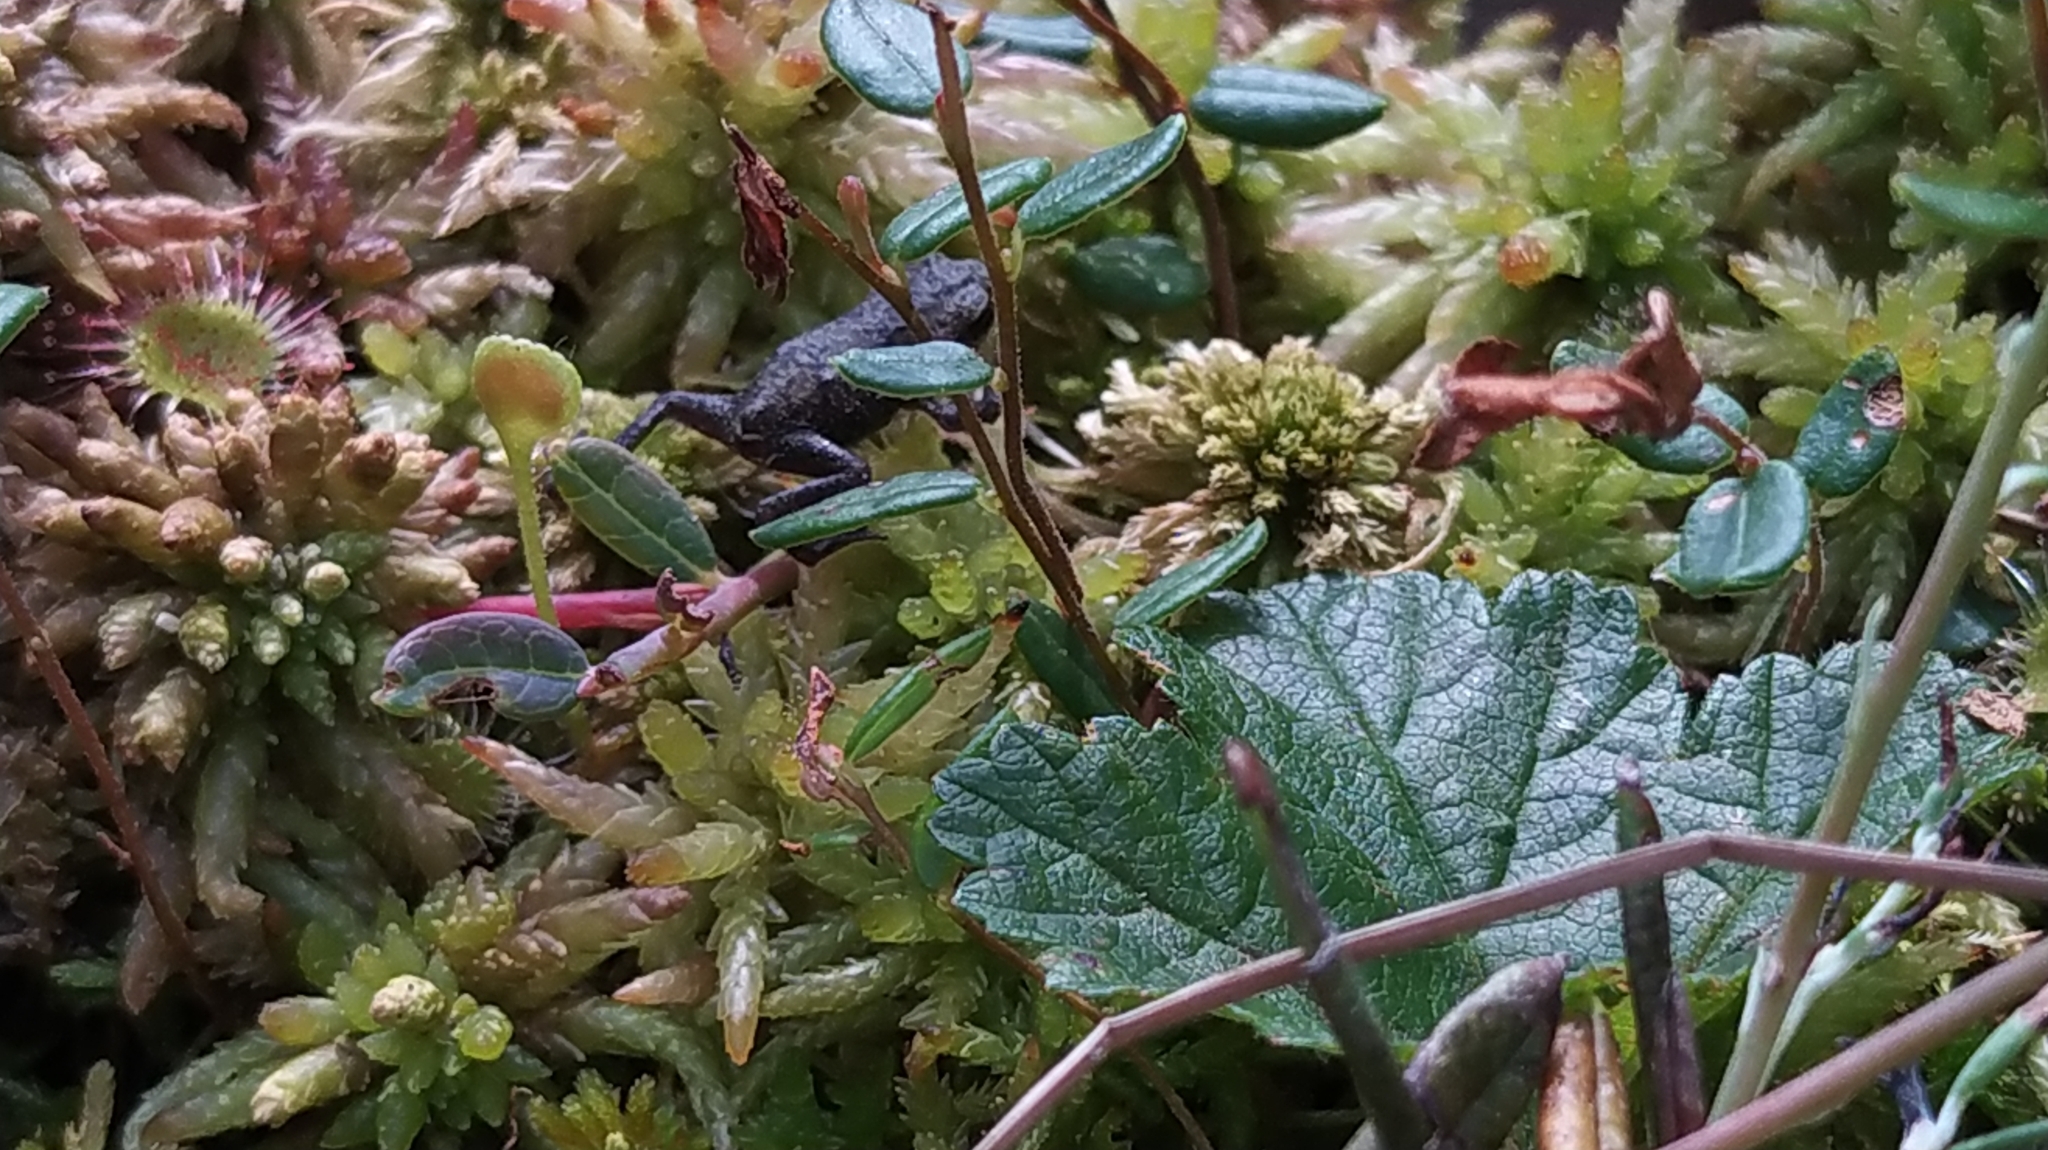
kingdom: Animalia
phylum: Chordata
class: Amphibia
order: Anura
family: Bufonidae
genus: Bufo
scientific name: Bufo bufo
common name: Common toad
